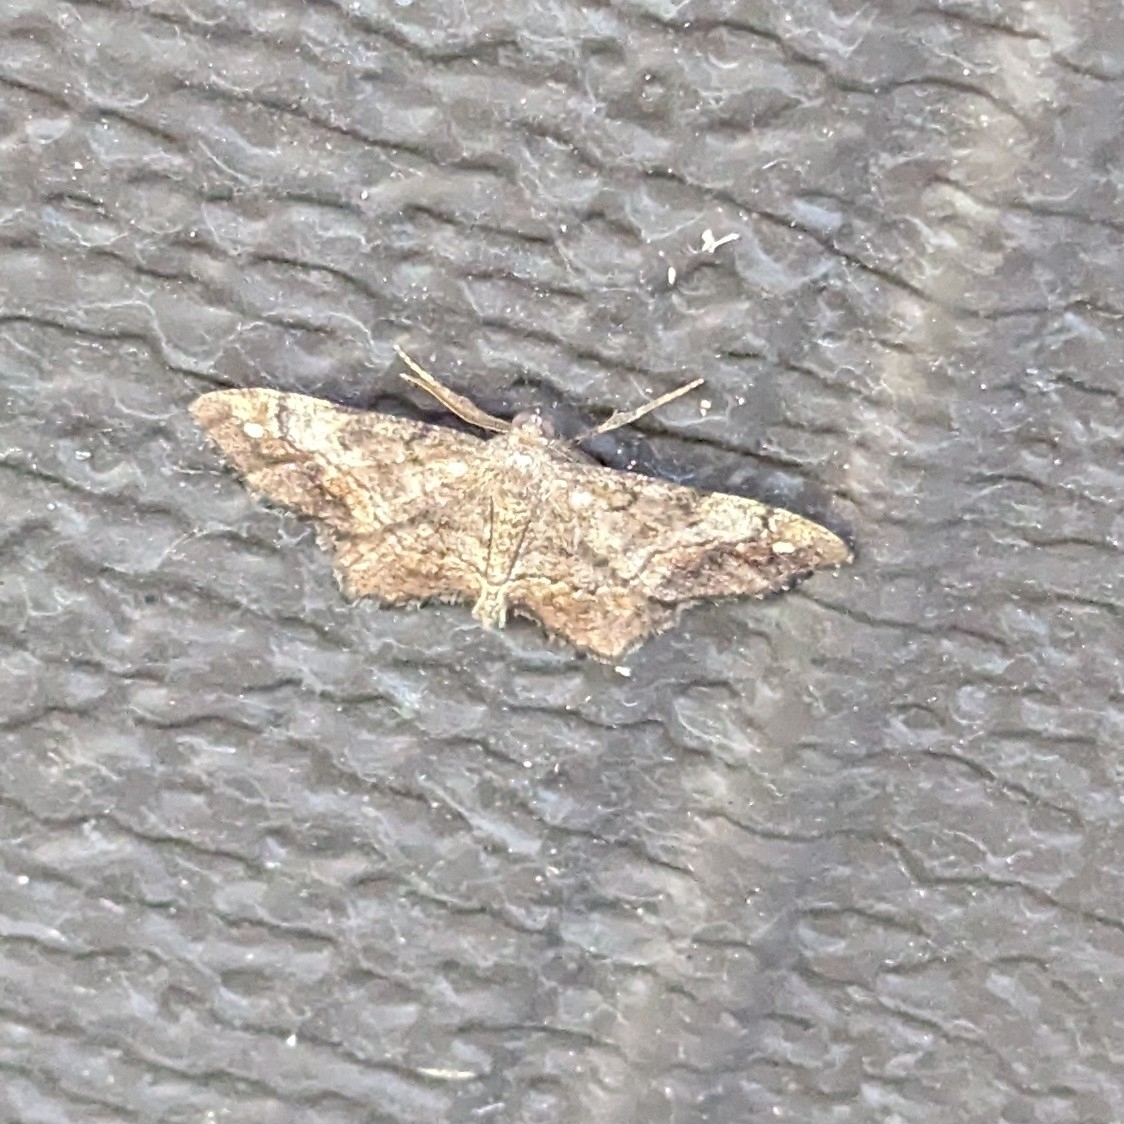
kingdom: Animalia
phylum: Arthropoda
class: Insecta
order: Lepidoptera
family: Geometridae
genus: Hypagyrtis
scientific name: Hypagyrtis unipunctata
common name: One-spotted variant
